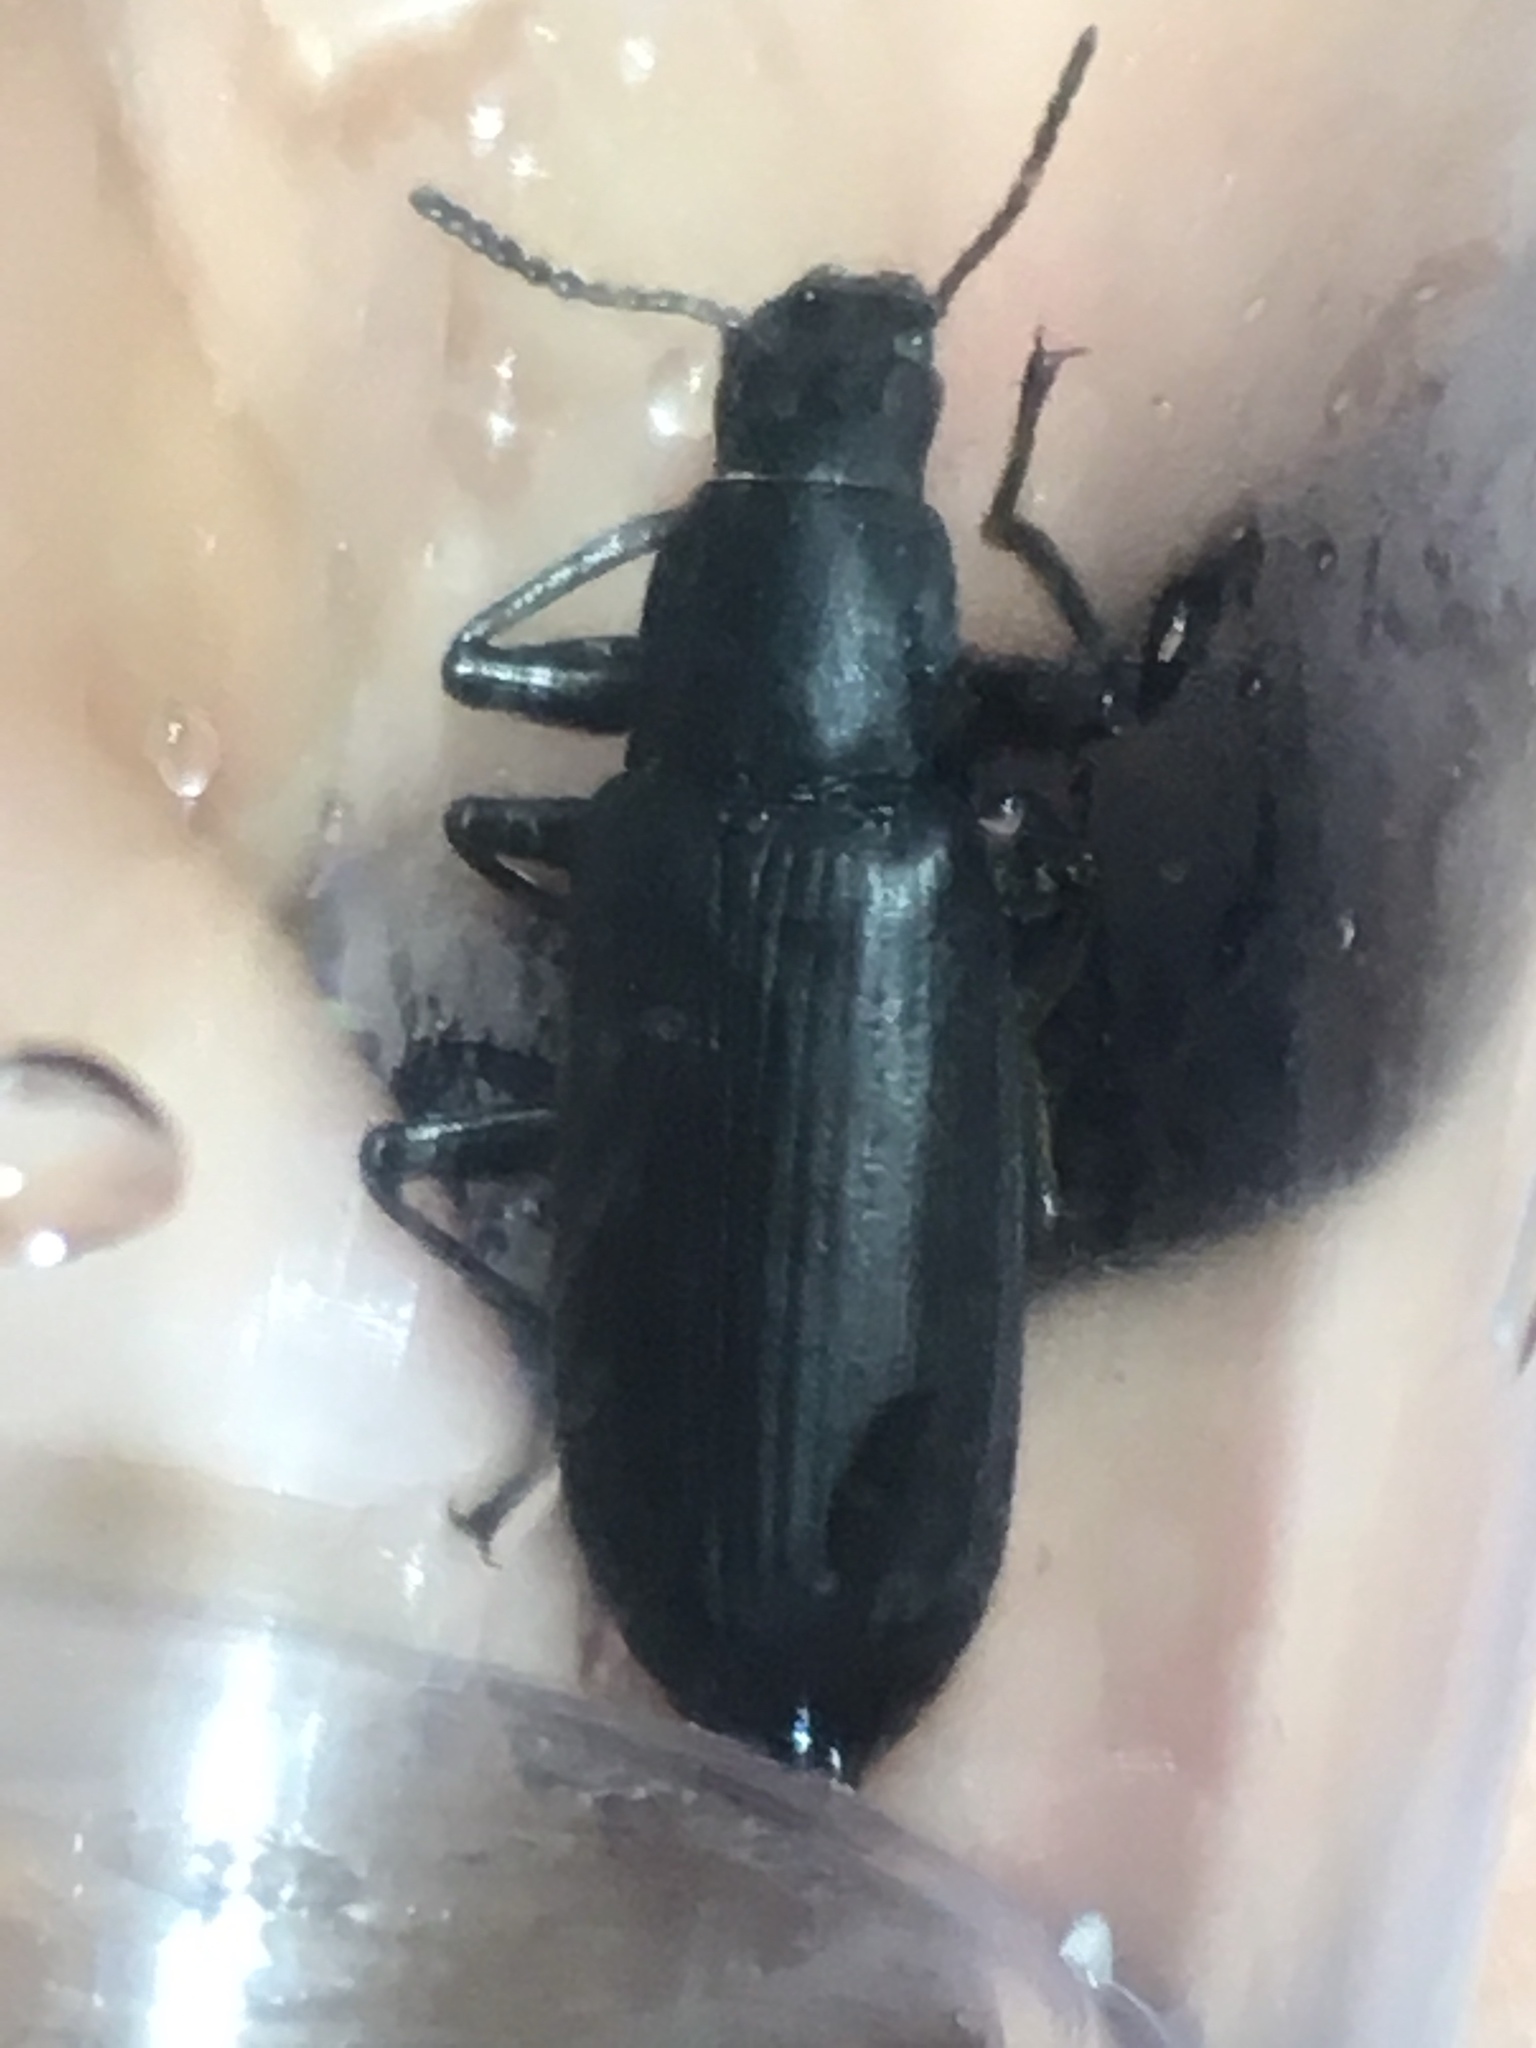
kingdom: Animalia
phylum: Arthropoda
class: Insecta
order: Coleoptera
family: Tenebrionidae
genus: Alobates
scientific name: Alobates pensylvanicus
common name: False mealworm beetle
